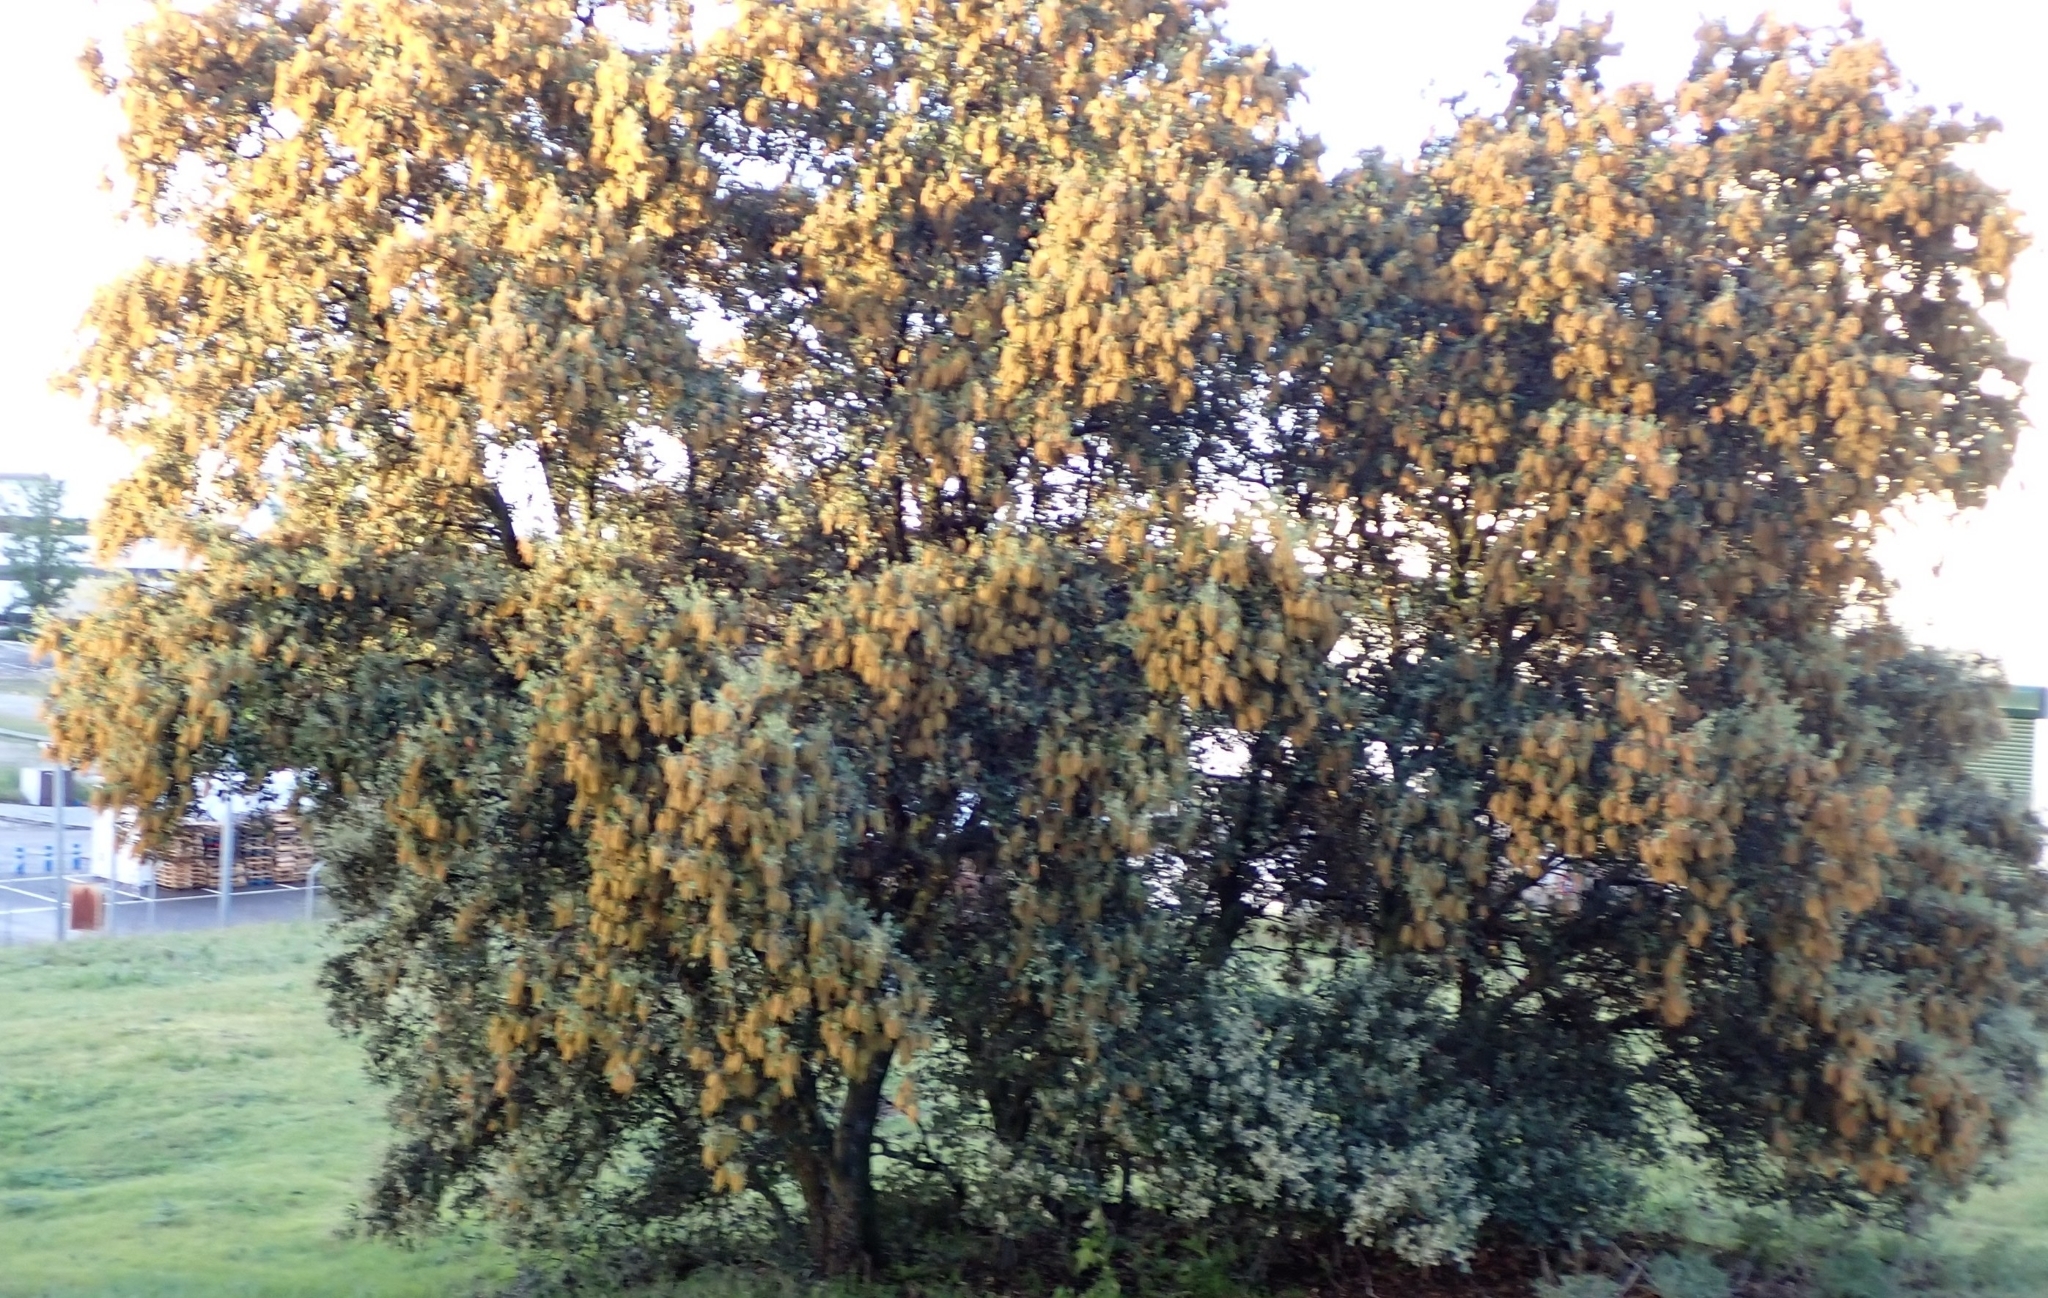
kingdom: Plantae
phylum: Tracheophyta
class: Magnoliopsida
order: Fagales
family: Fagaceae
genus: Quercus
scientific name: Quercus rotundifolia
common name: Holm oak
